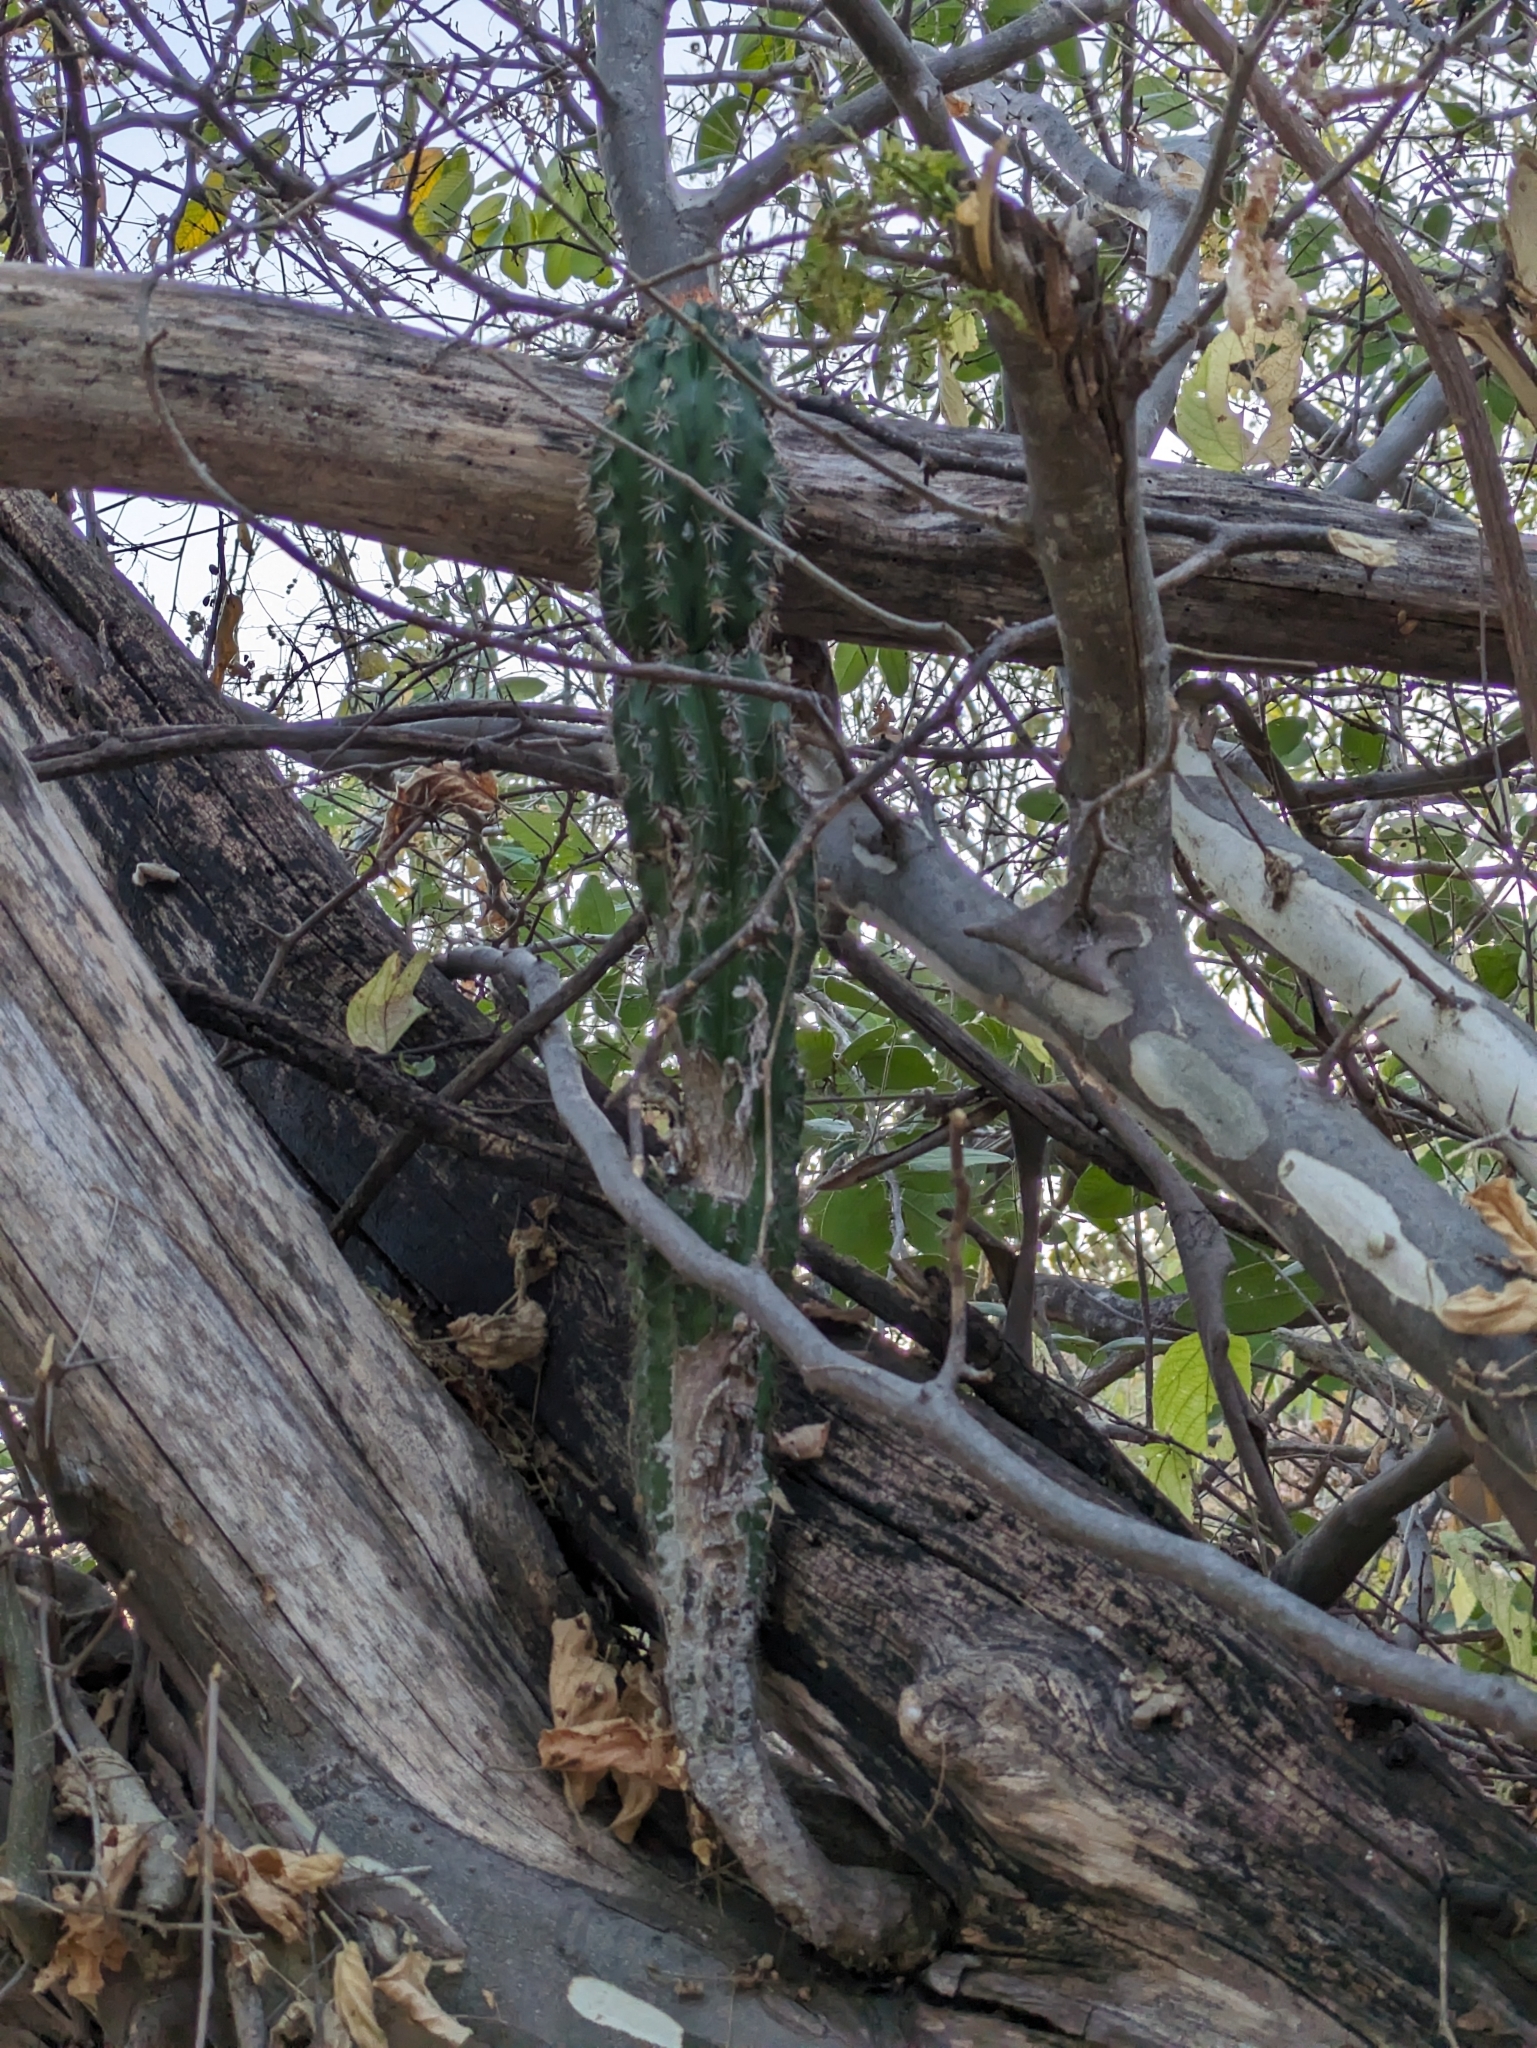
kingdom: Plantae
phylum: Tracheophyta
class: Magnoliopsida
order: Caryophyllales
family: Cactaceae
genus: Pachycereus
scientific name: Pachycereus pecten-aboriginum
